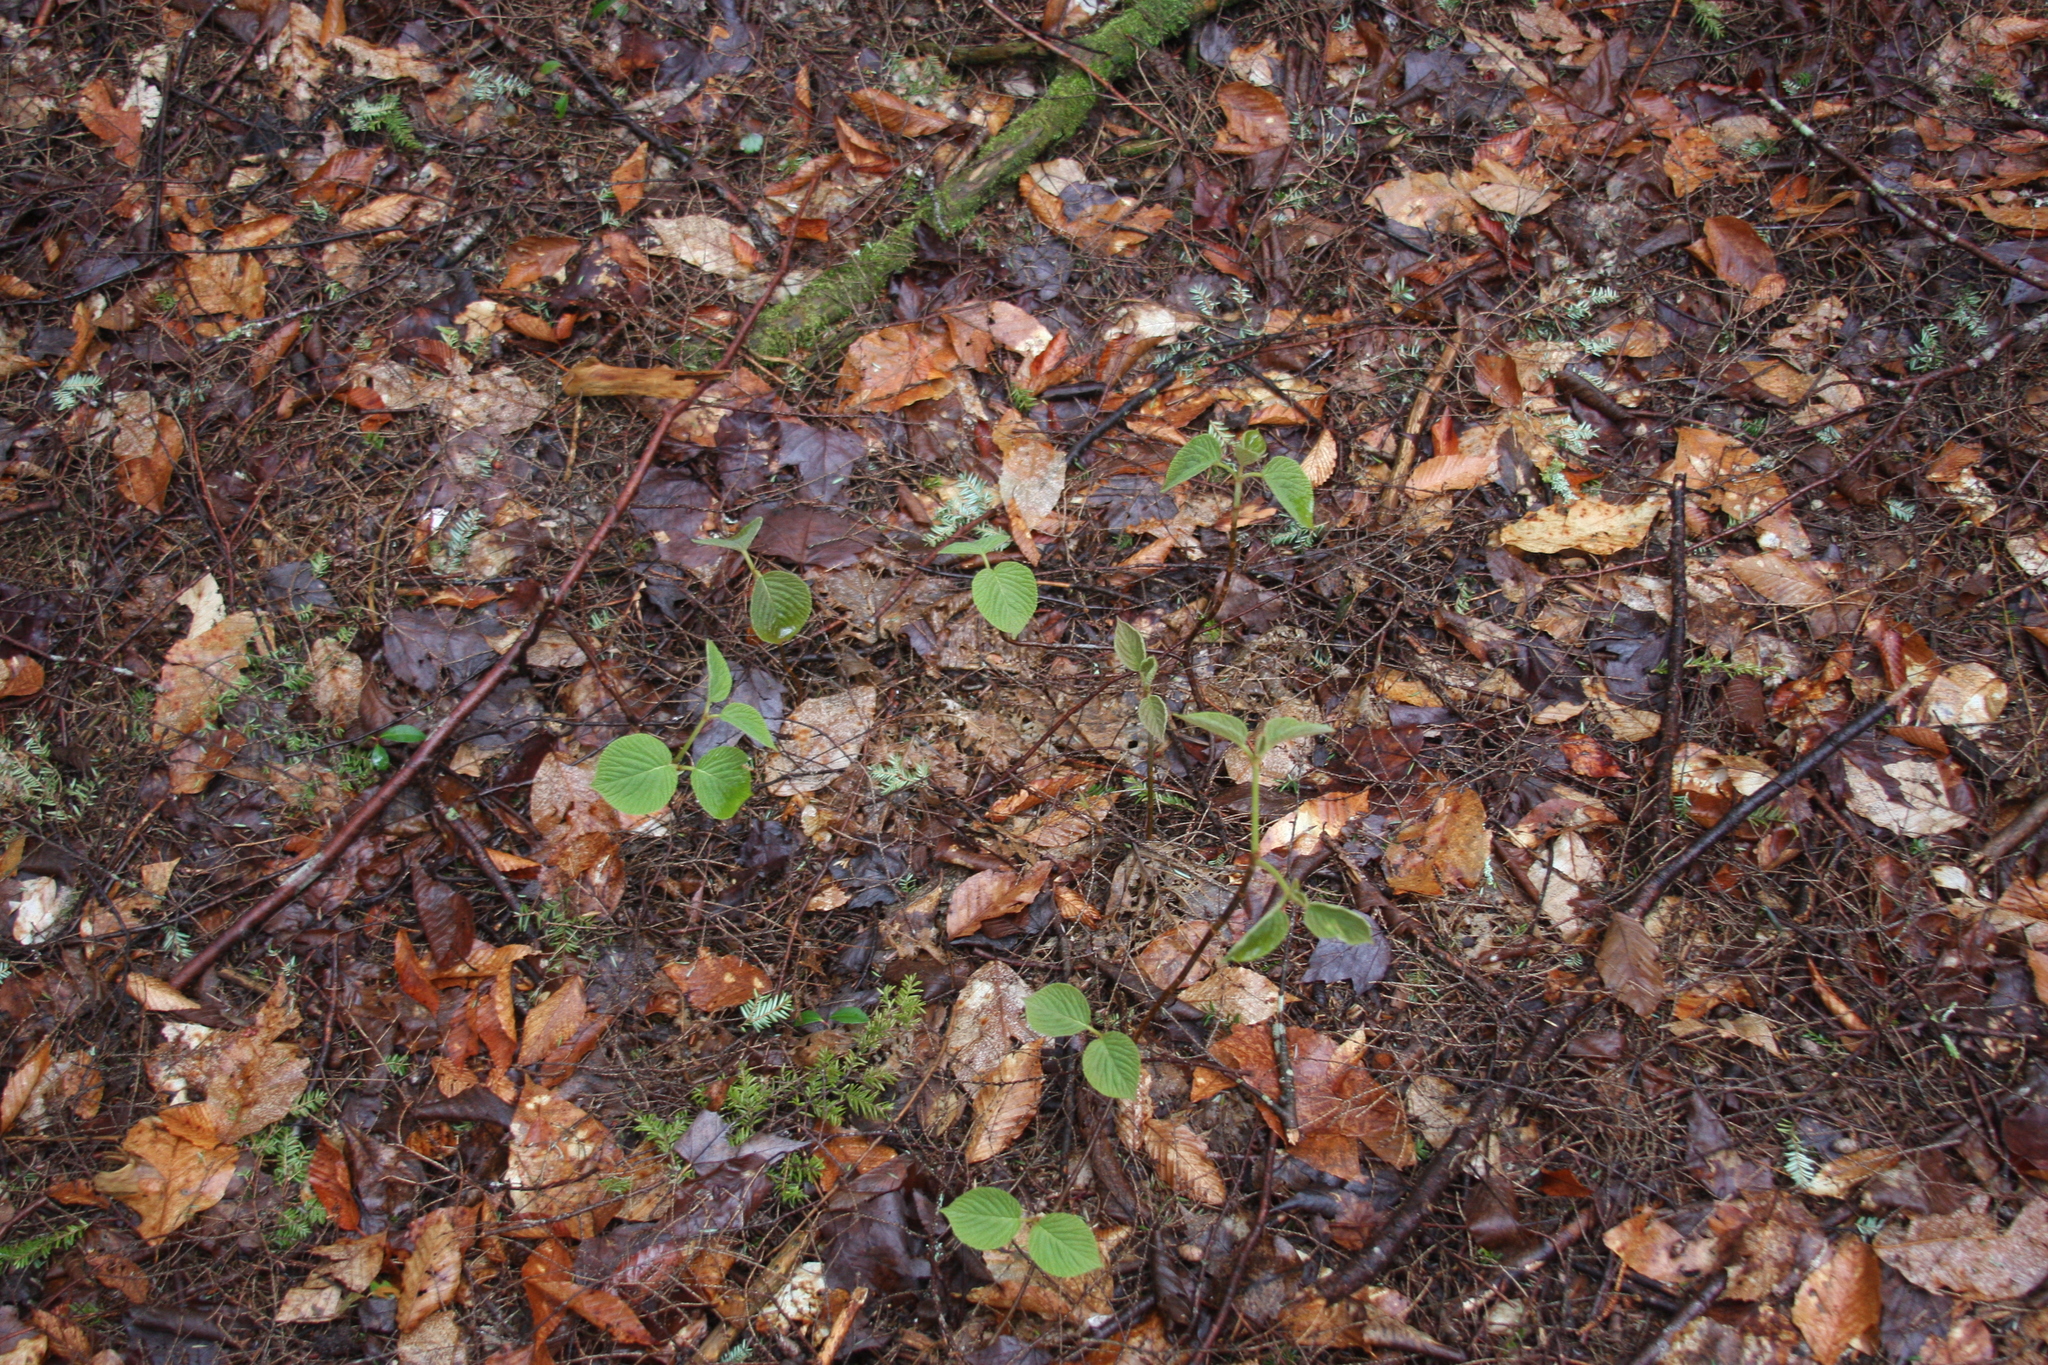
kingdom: Plantae
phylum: Tracheophyta
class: Magnoliopsida
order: Dipsacales
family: Viburnaceae
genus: Viburnum
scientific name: Viburnum lantanoides
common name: Hobblebush
